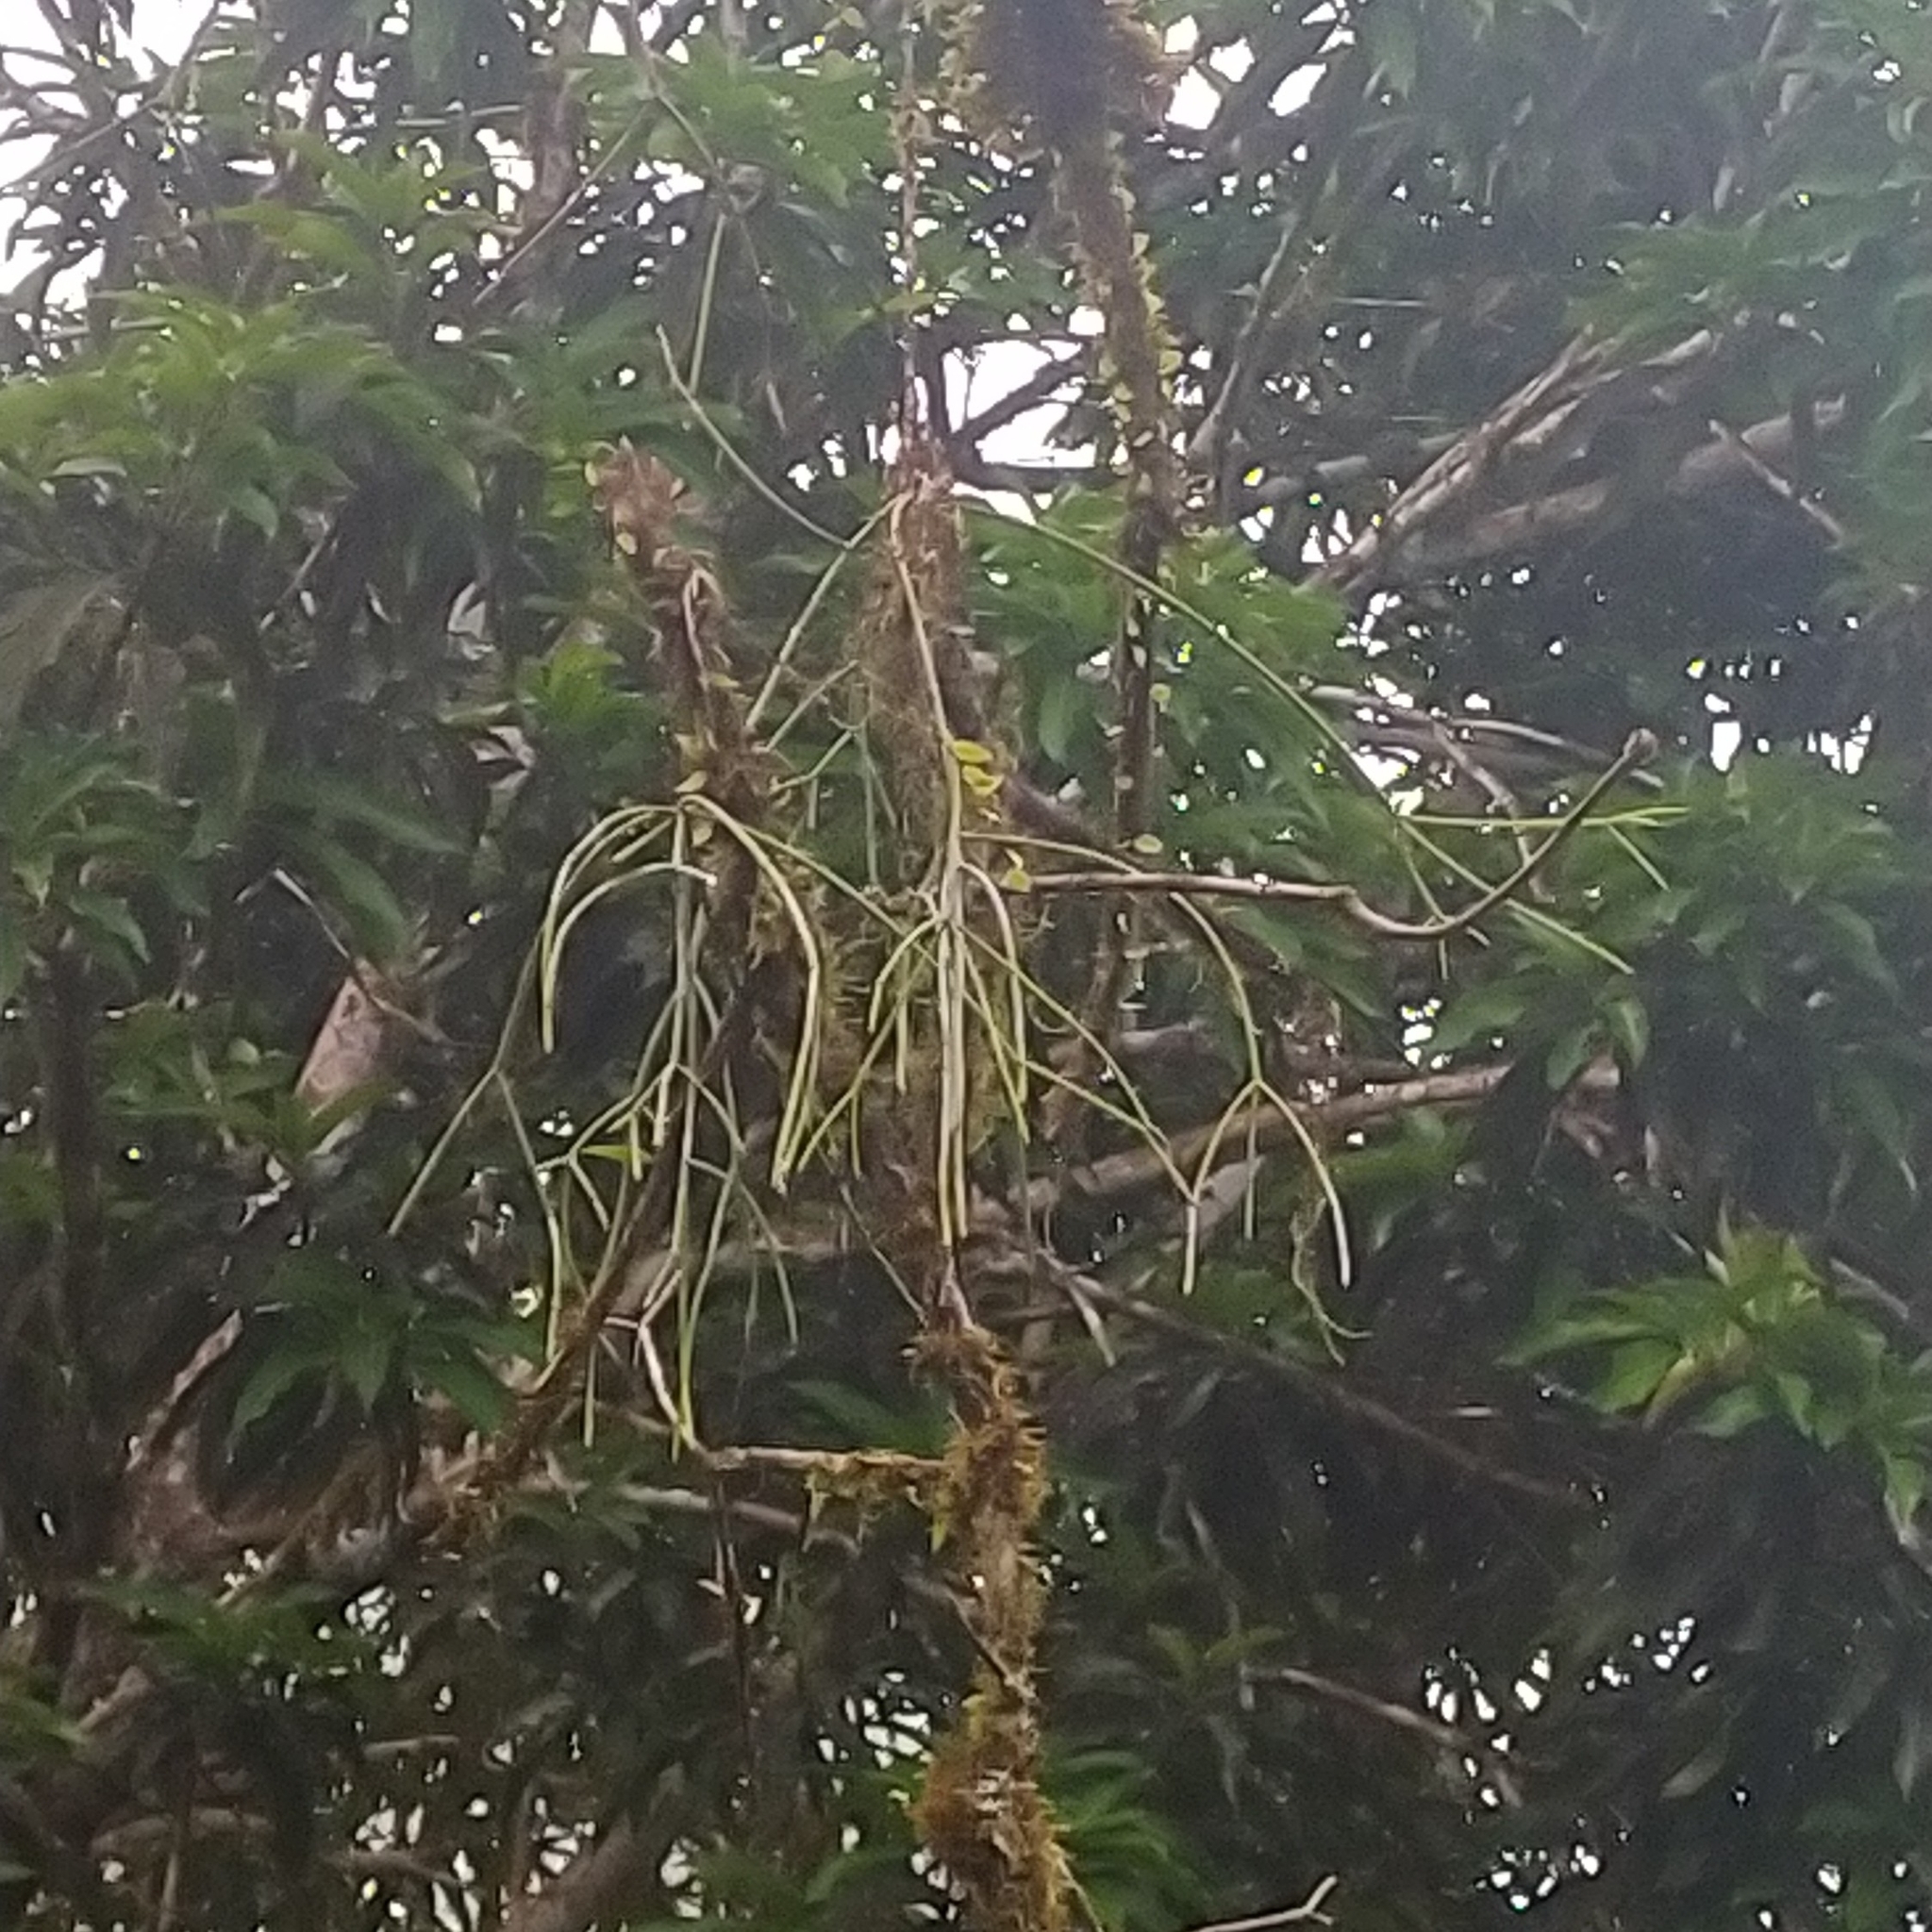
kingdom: Plantae
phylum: Tracheophyta
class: Magnoliopsida
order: Caryophyllales
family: Cactaceae
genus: Rhipsalis
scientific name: Rhipsalis baccifera
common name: Mistletoe cactus
